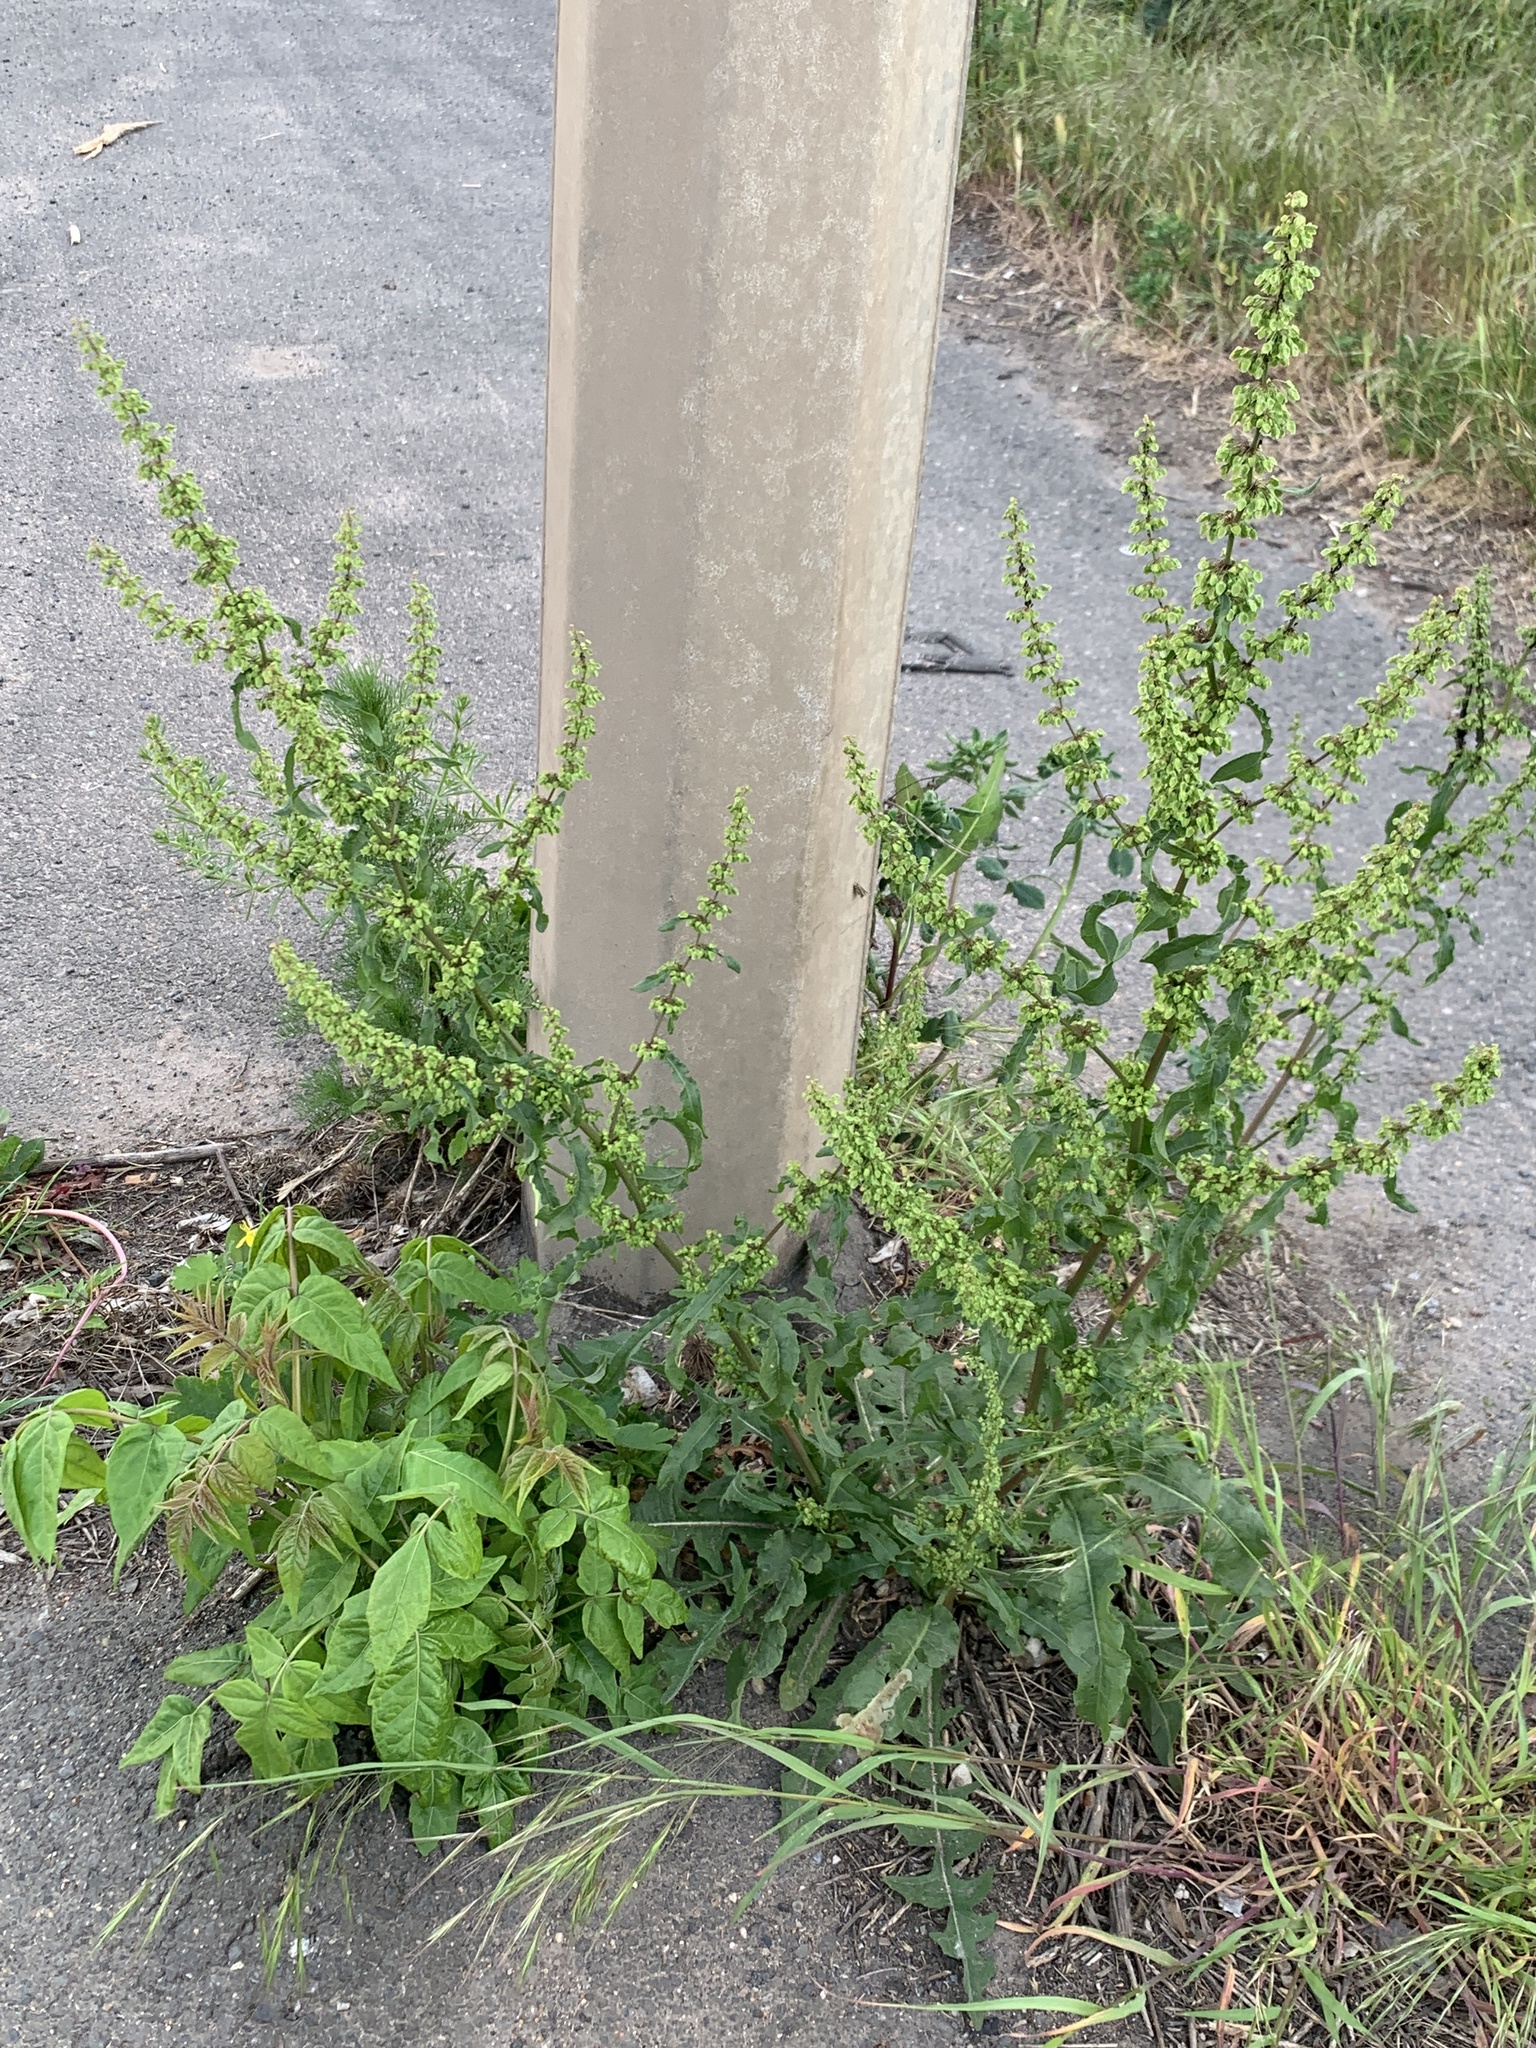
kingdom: Plantae
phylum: Tracheophyta
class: Magnoliopsida
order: Caryophyllales
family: Polygonaceae
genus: Rumex
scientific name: Rumex crispus
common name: Curled dock
